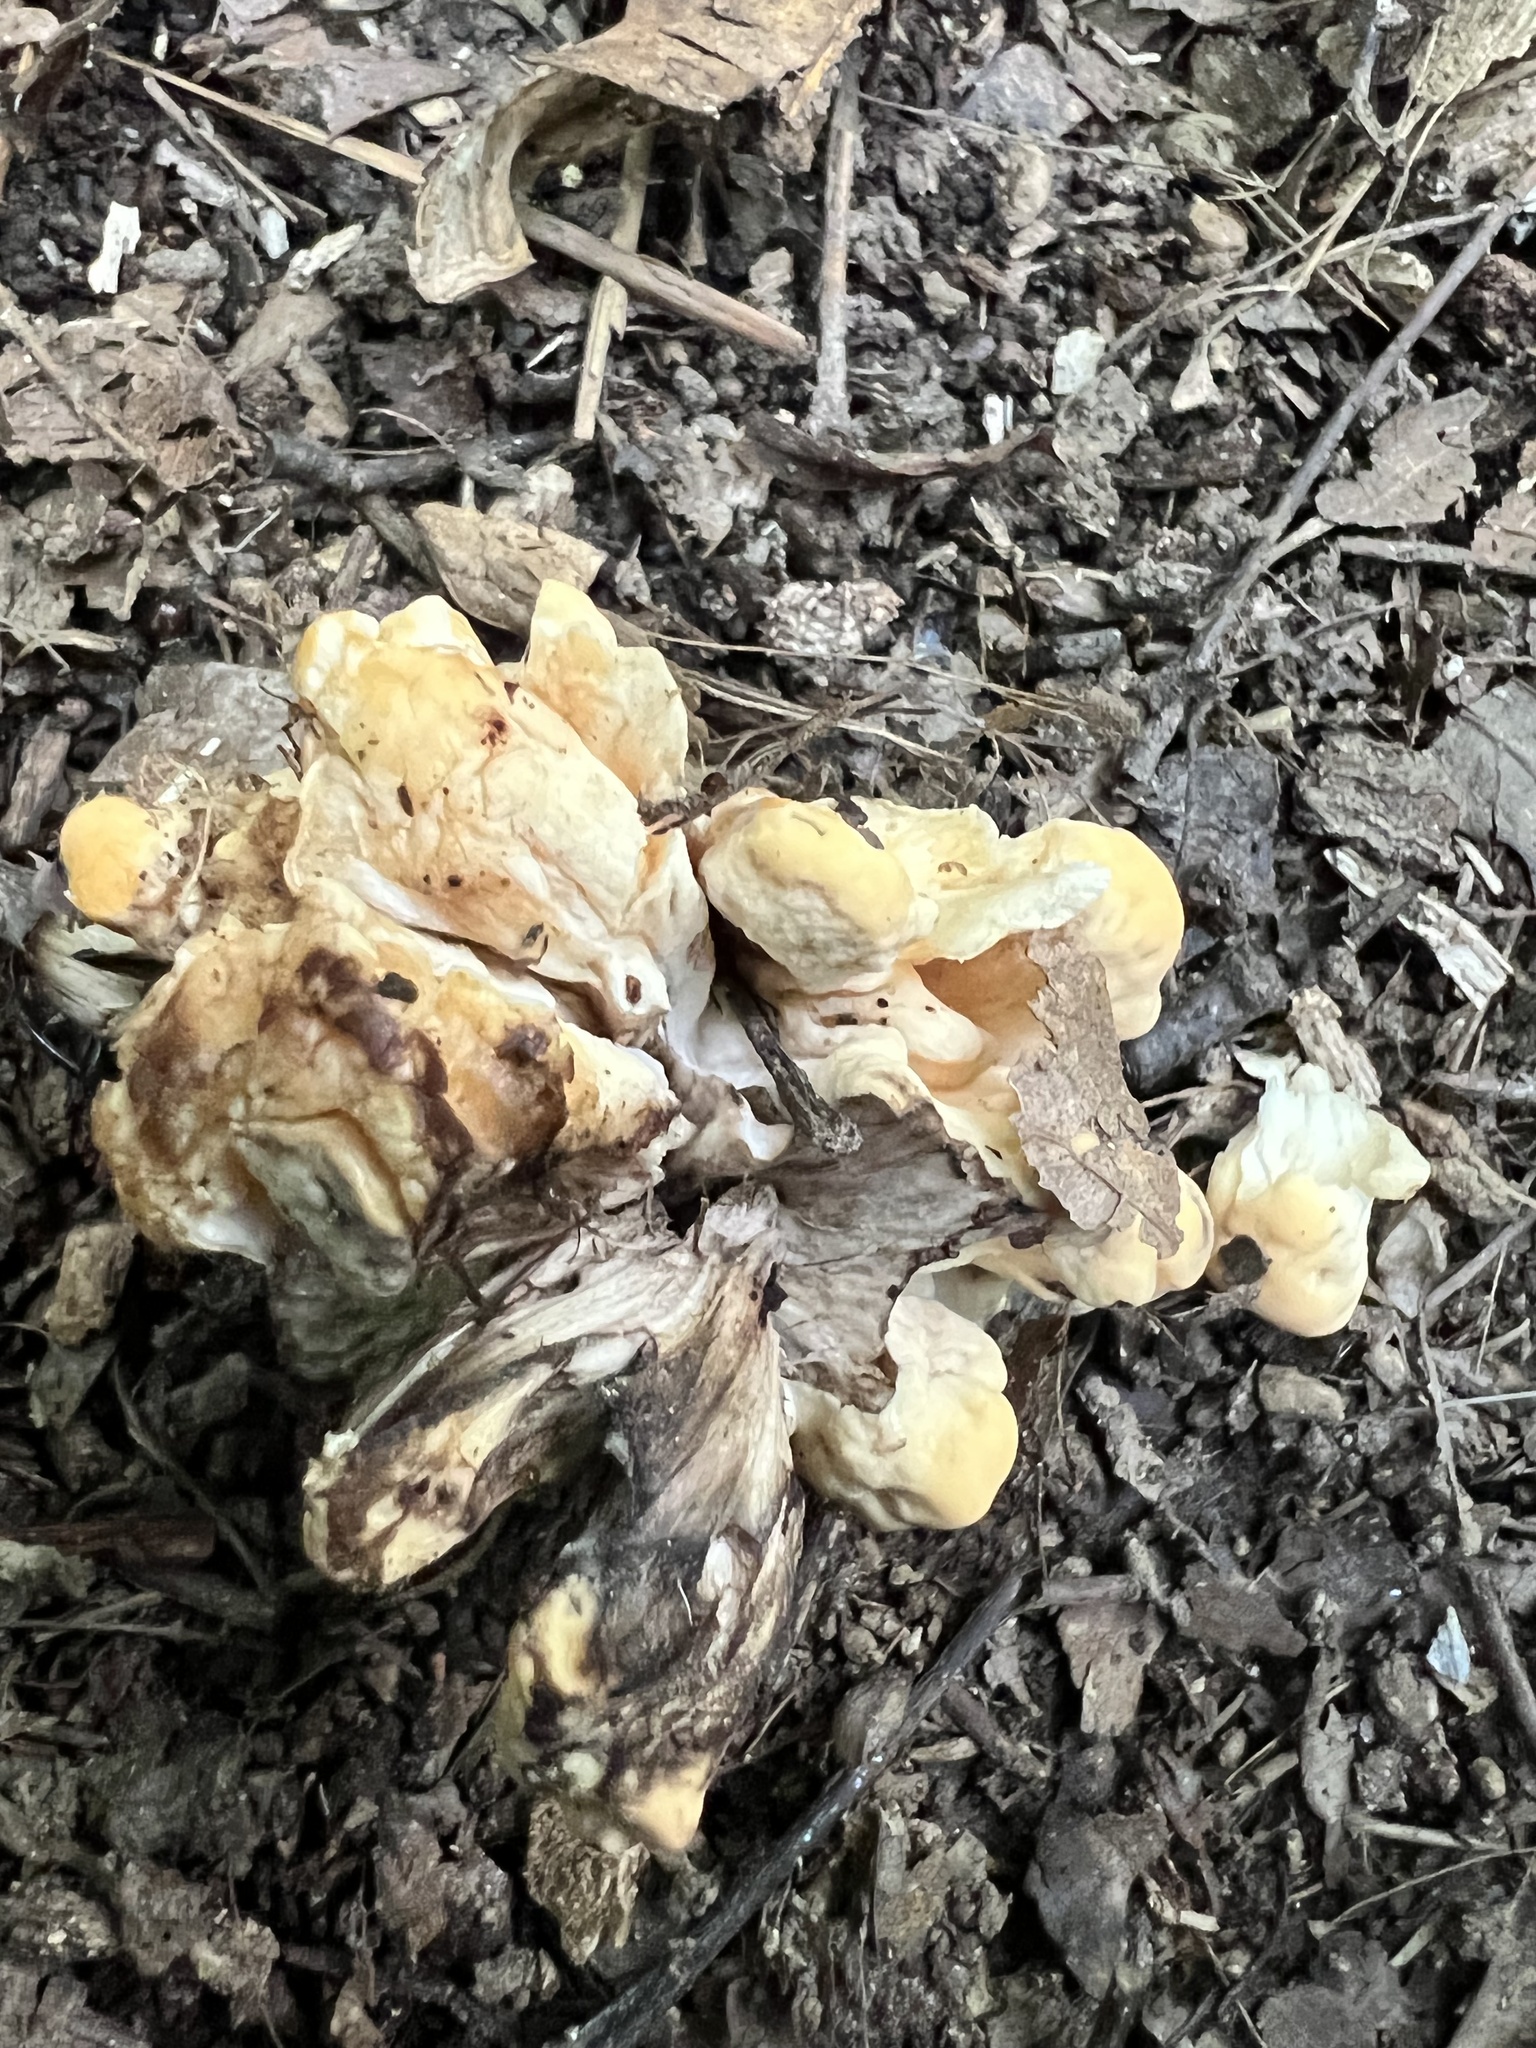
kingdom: Fungi
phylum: Basidiomycota
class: Agaricomycetes
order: Polyporales
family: Meripilaceae
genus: Meripilus
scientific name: Meripilus sumstinei
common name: Black-staining polypore
